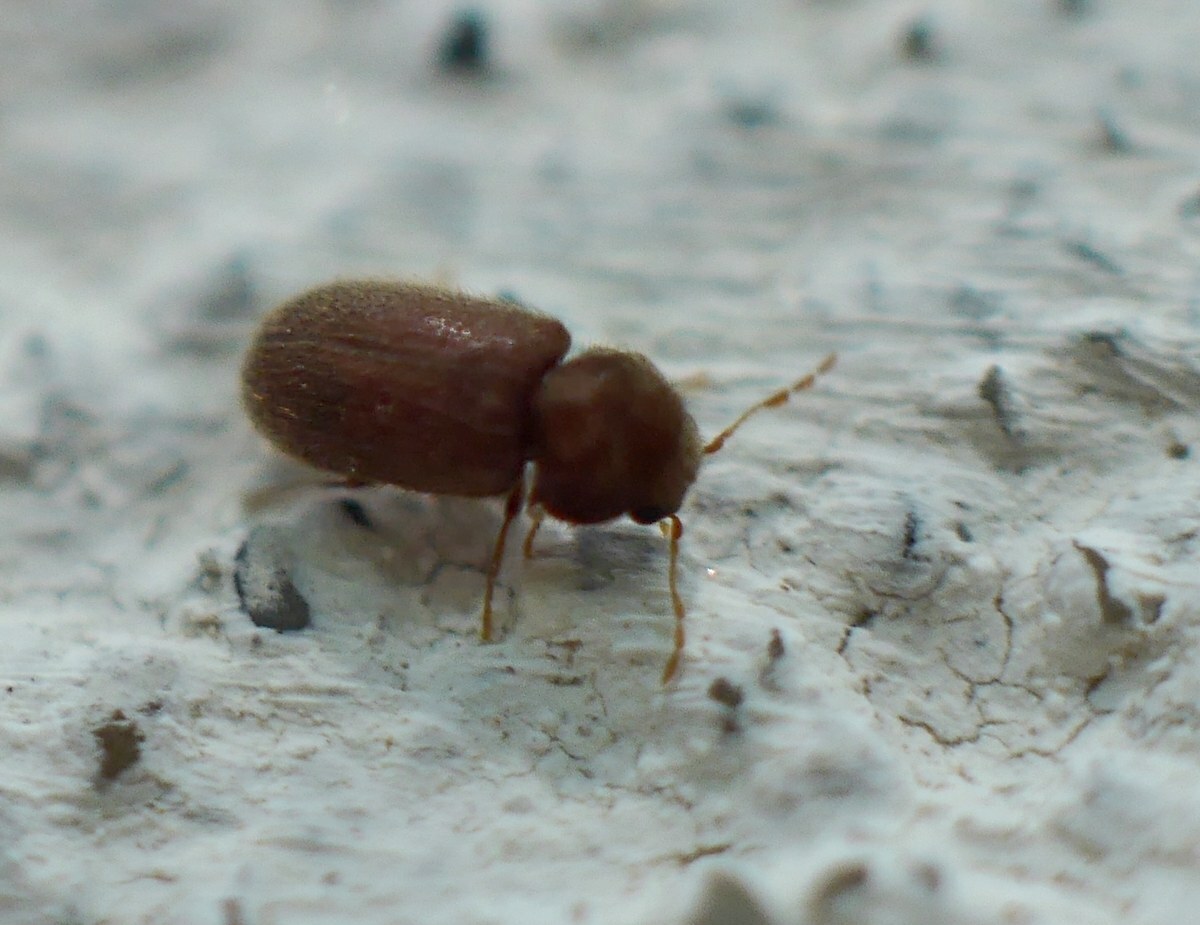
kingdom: Animalia
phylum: Arthropoda
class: Insecta
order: Coleoptera
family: Anobiidae
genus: Stegobium
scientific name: Stegobium paniceum
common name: Drugstore beetle
